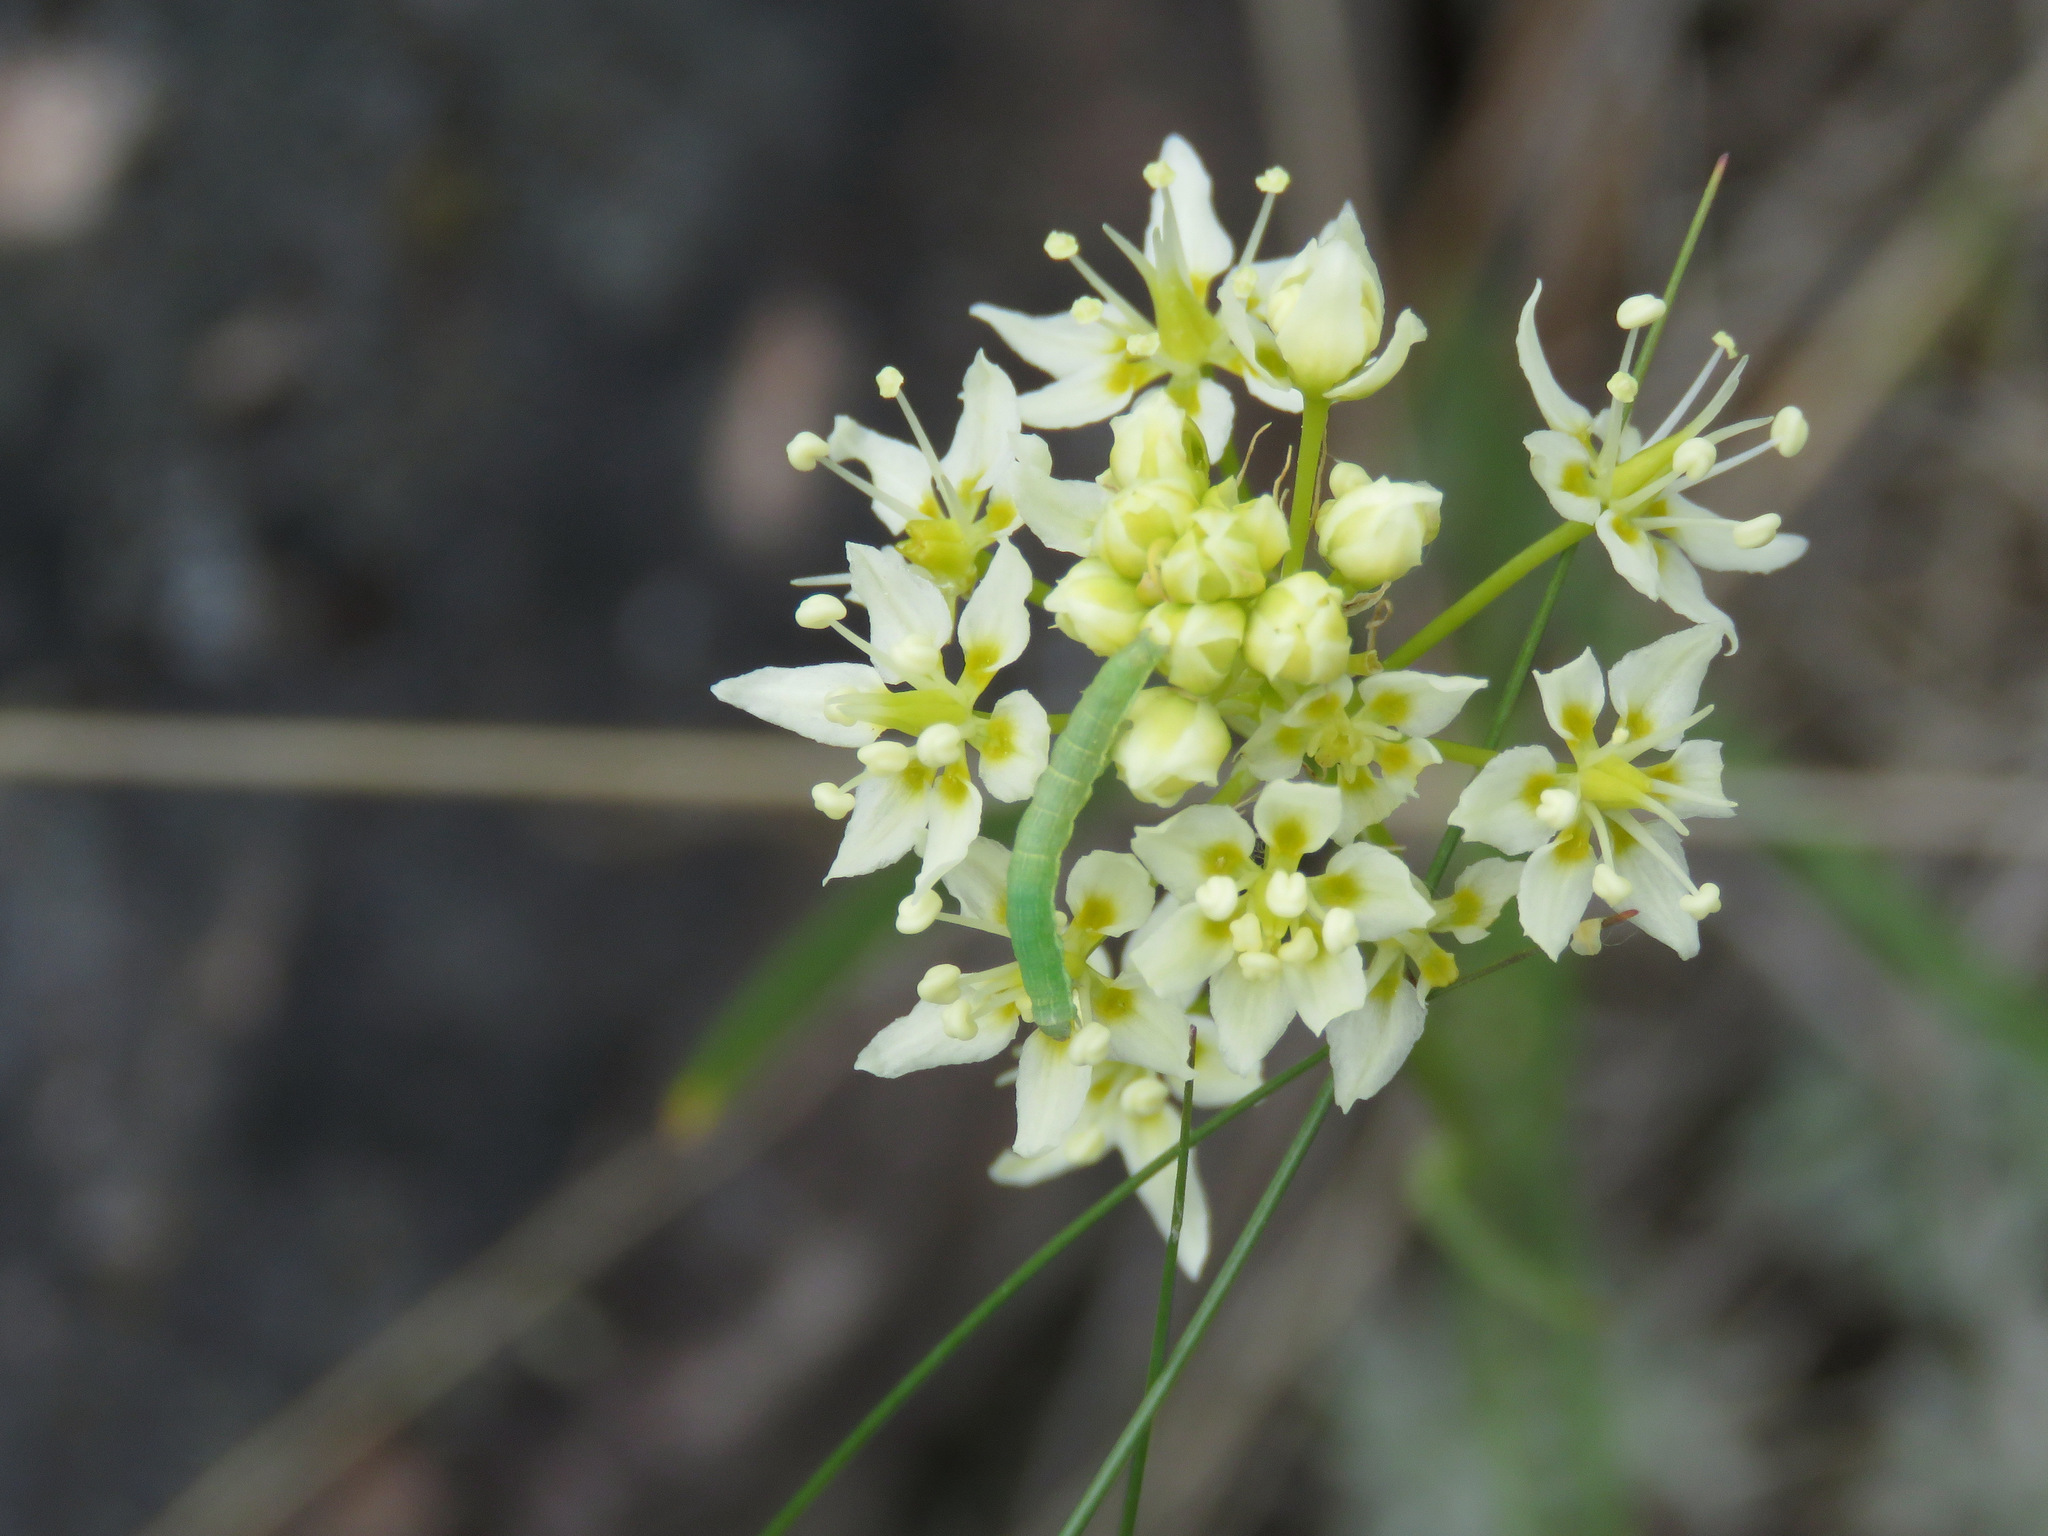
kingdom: Plantae
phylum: Tracheophyta
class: Liliopsida
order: Liliales
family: Melanthiaceae
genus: Toxicoscordion
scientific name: Toxicoscordion venenosum
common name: Meadow death camas
